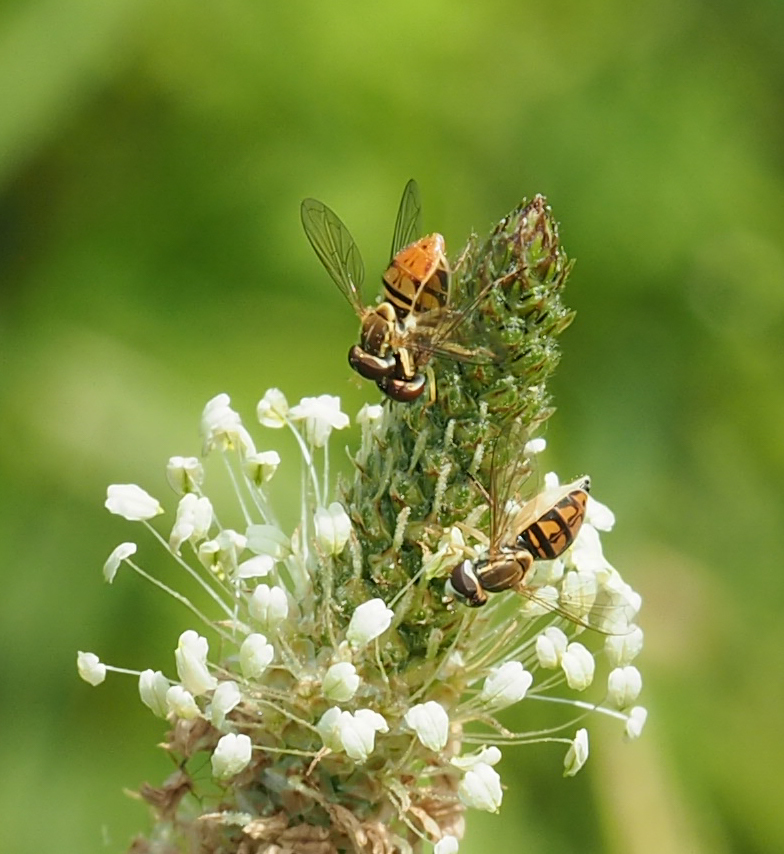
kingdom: Animalia
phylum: Arthropoda
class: Insecta
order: Diptera
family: Syrphidae
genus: Toxomerus
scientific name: Toxomerus marginatus
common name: Syrphid fly
